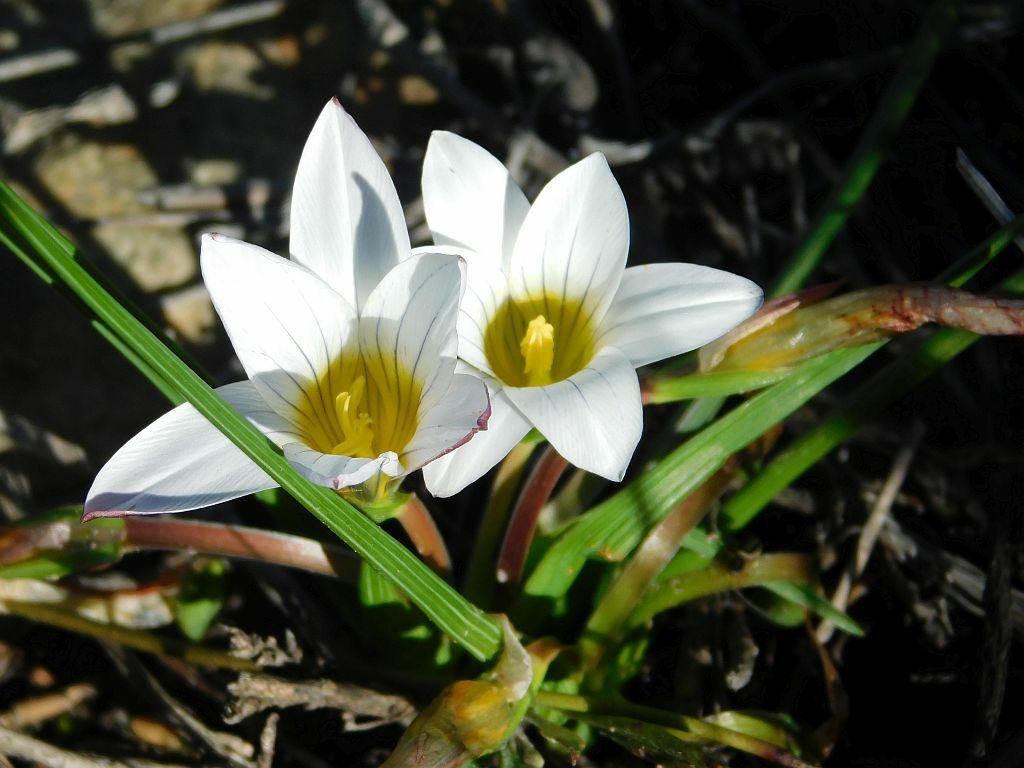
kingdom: Plantae
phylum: Tracheophyta
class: Liliopsida
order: Asparagales
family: Iridaceae
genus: Romulea
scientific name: Romulea flava
